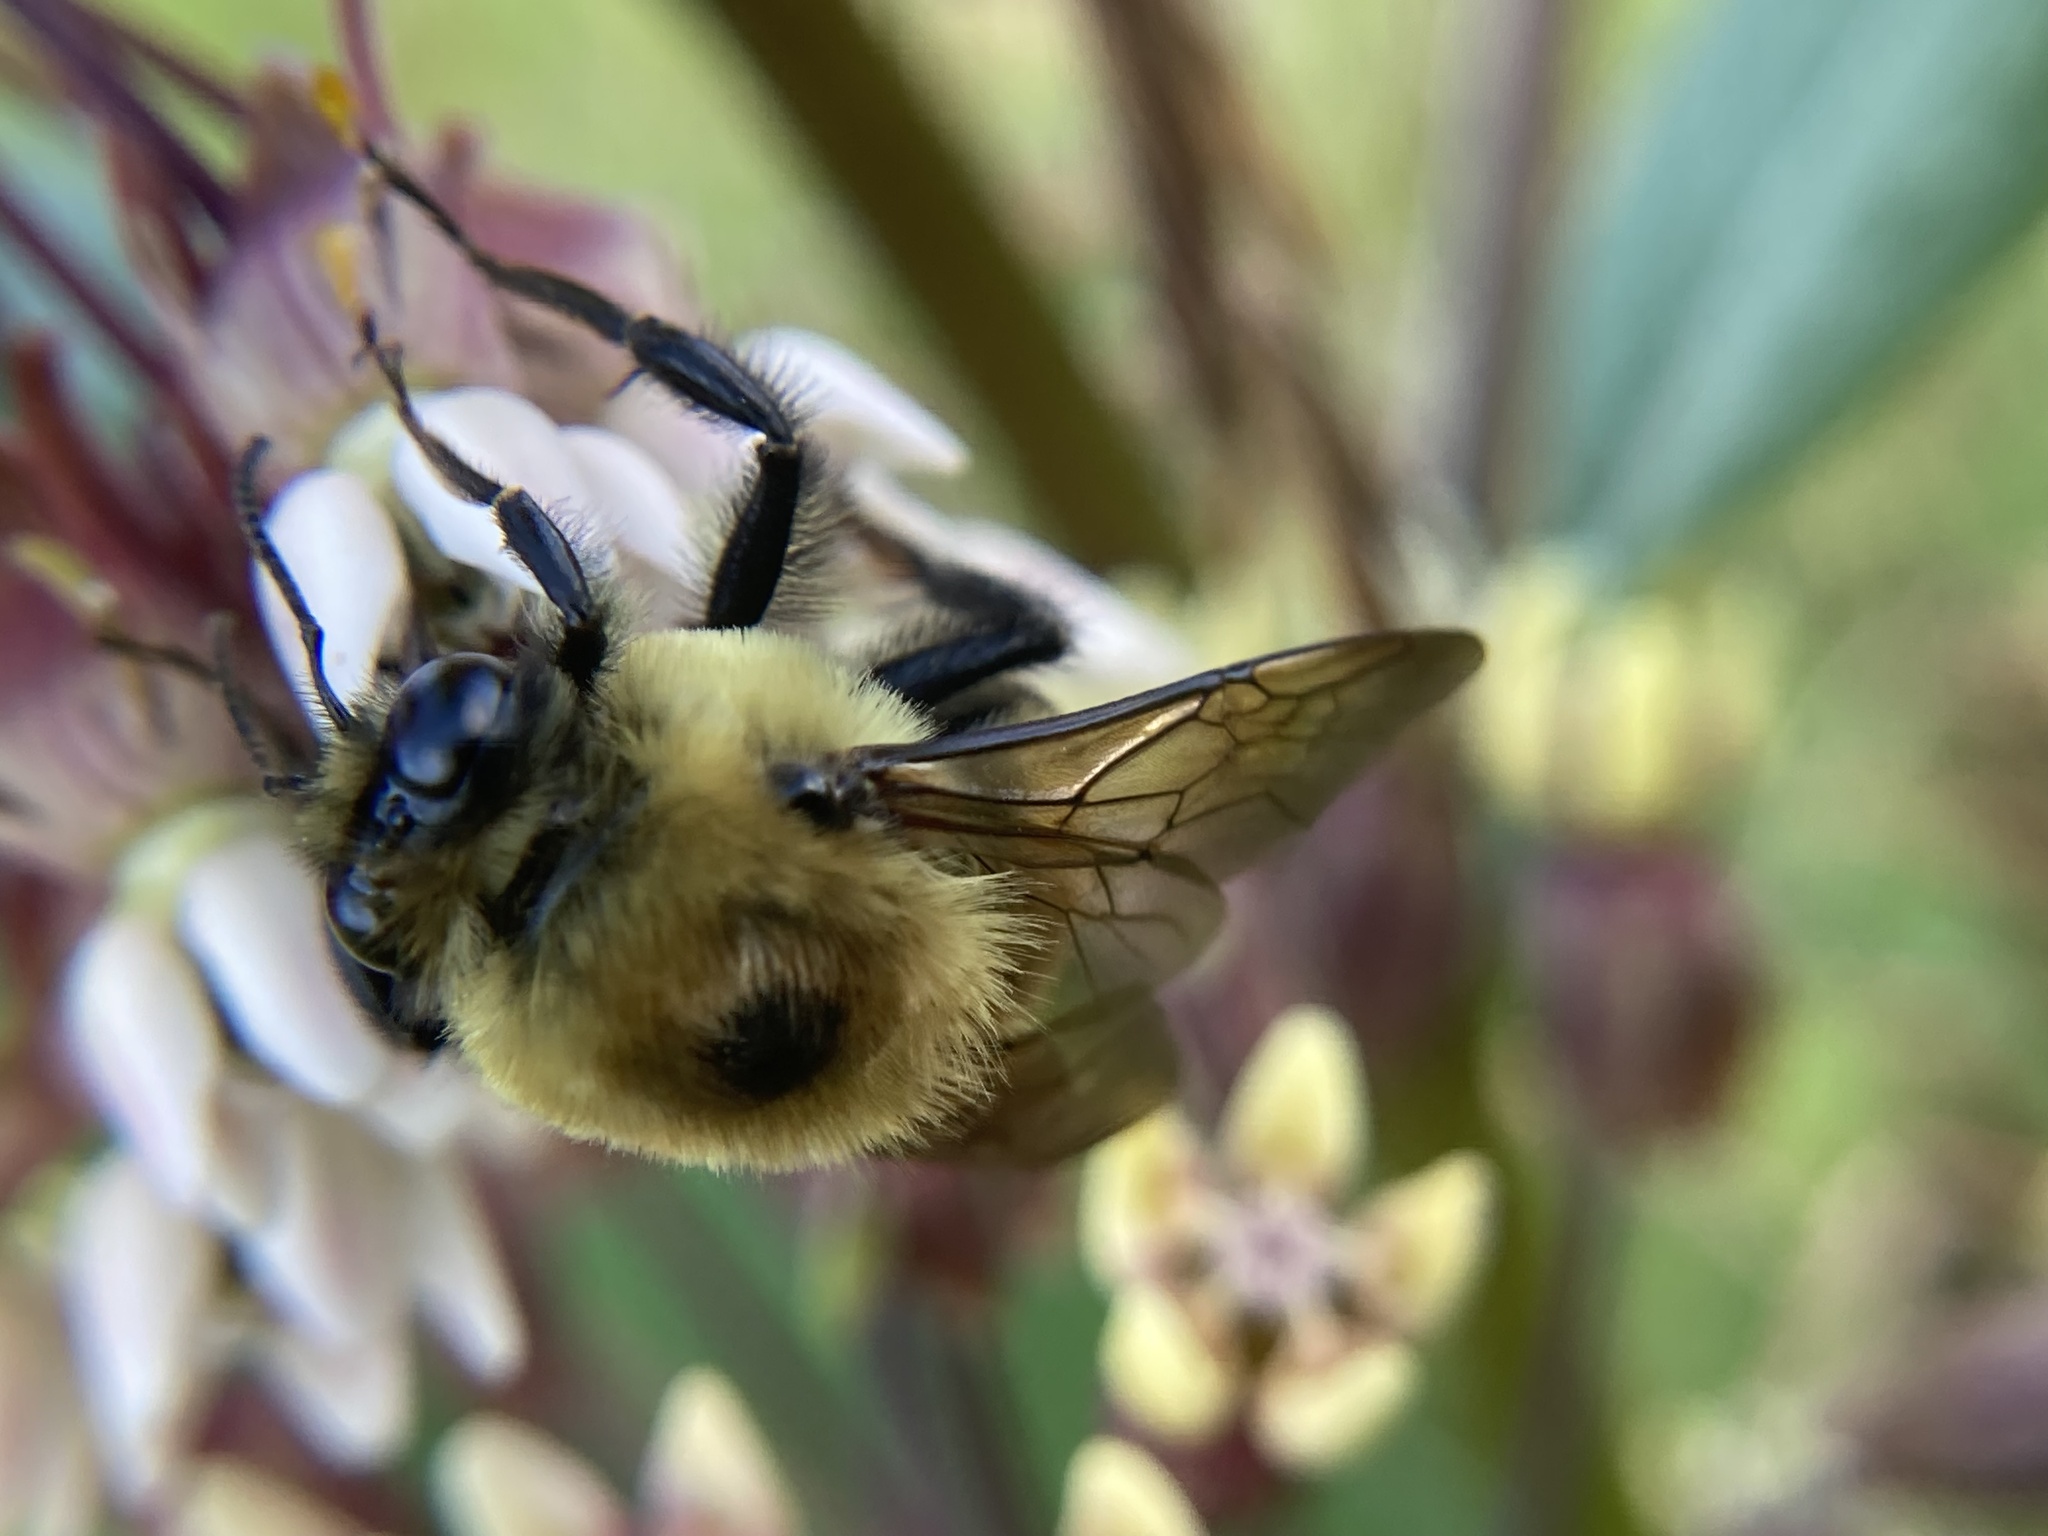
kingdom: Animalia
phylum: Arthropoda
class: Insecta
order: Hymenoptera
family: Apidae
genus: Bombus
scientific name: Bombus griseocollis
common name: Brown-belted bumble bee
